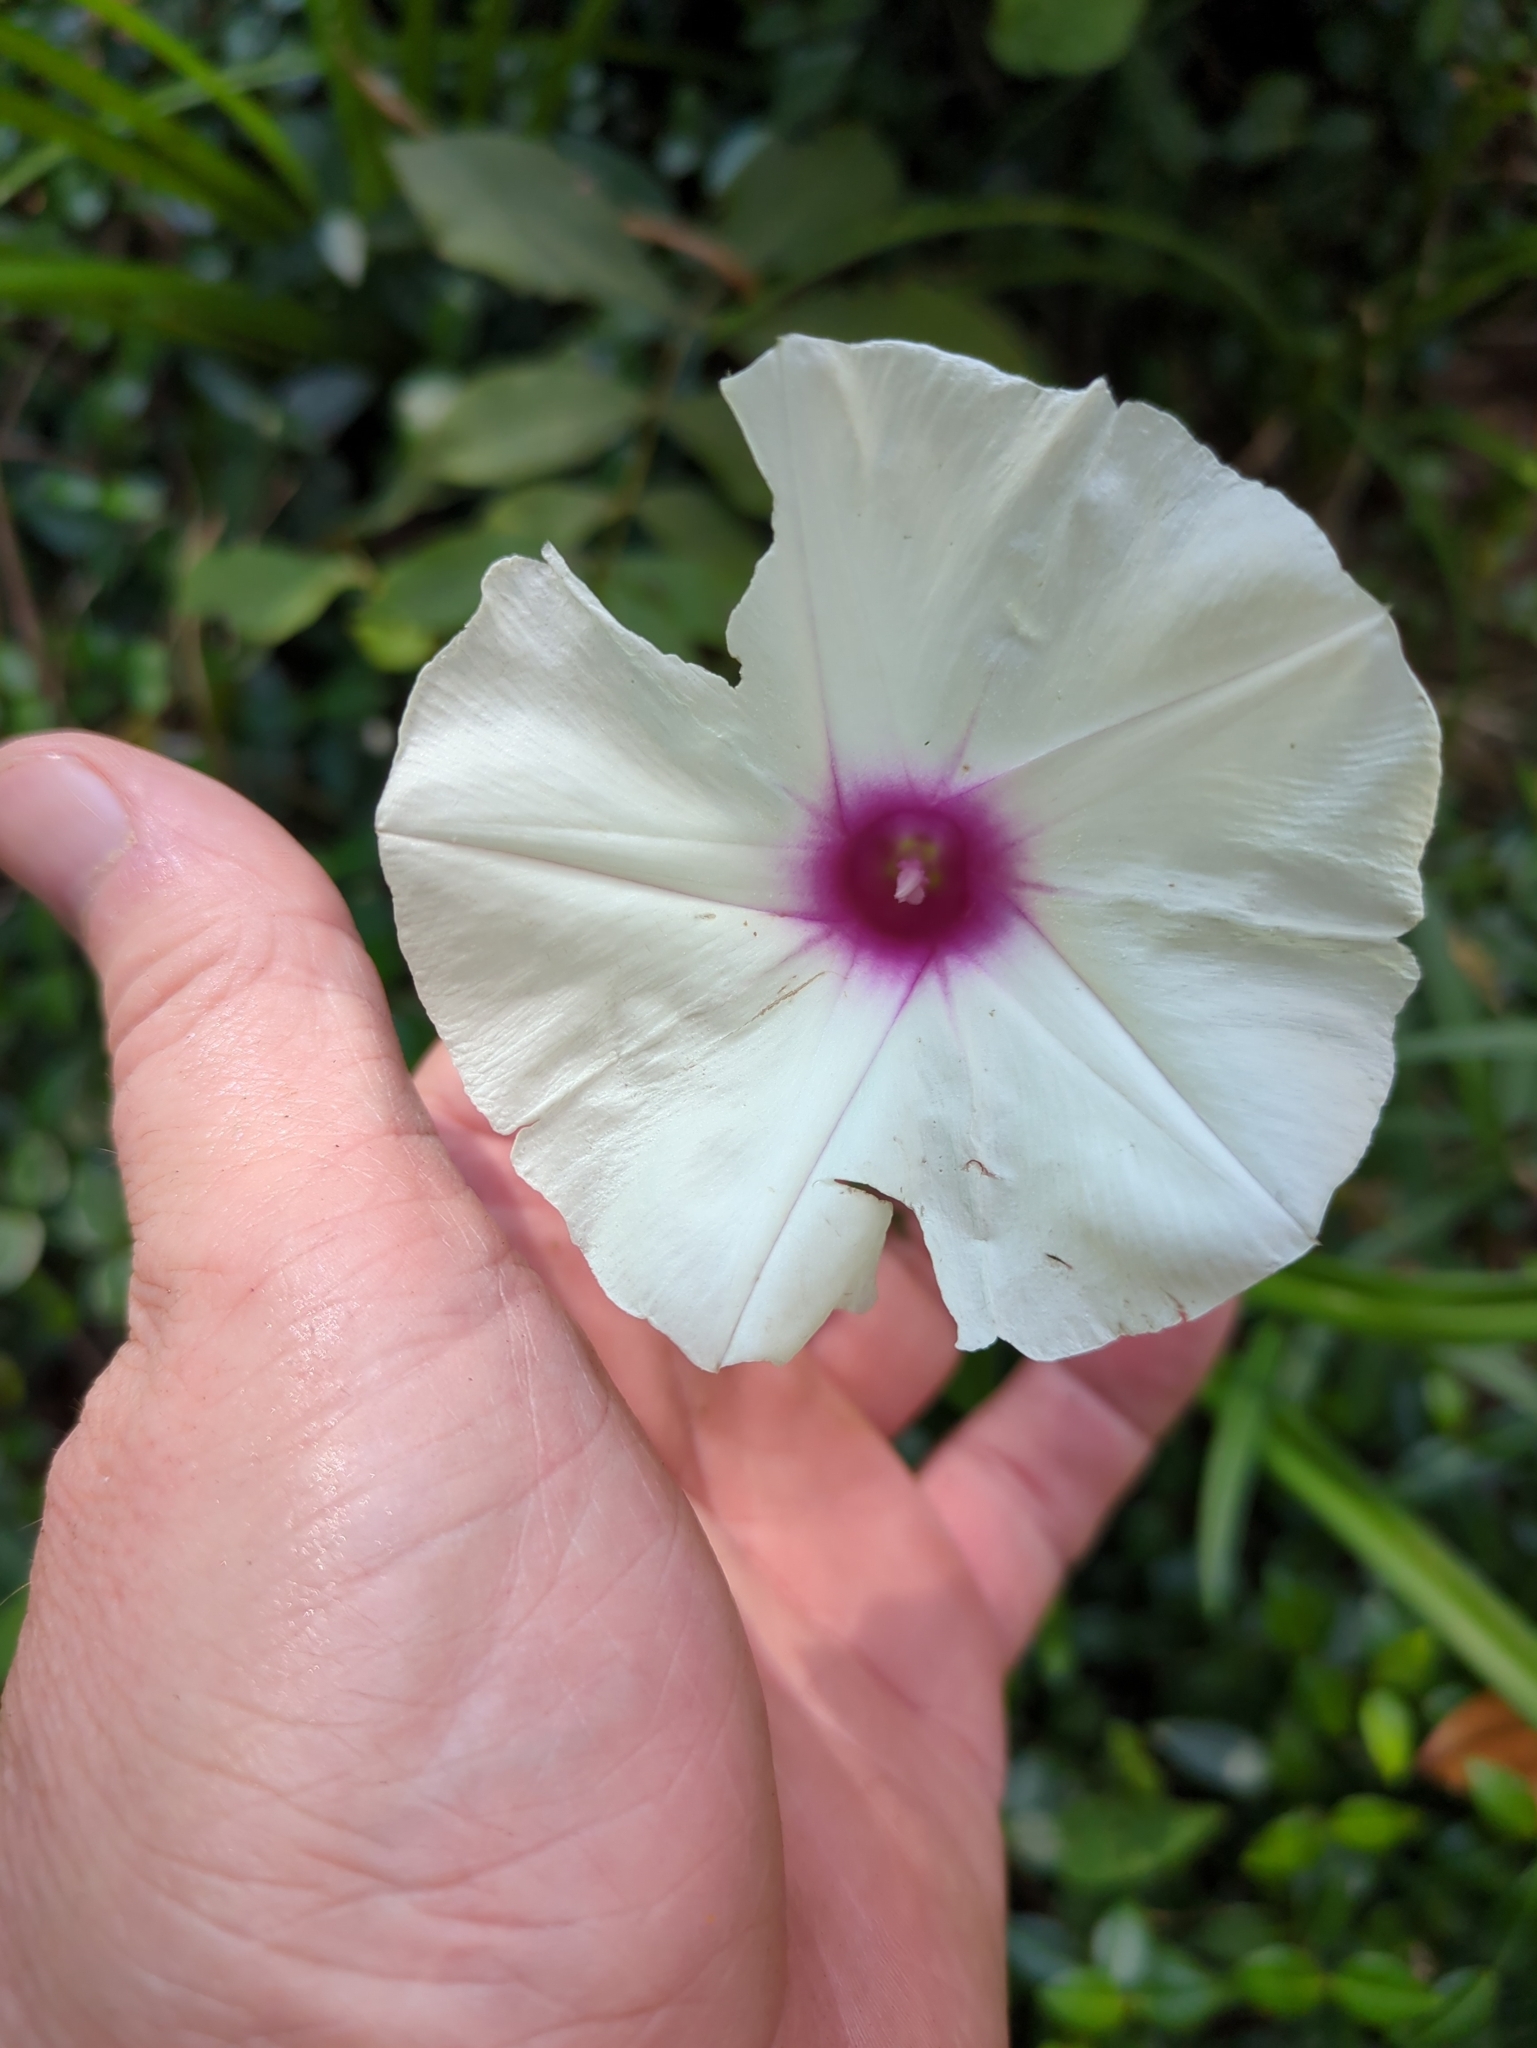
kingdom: Plantae
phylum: Tracheophyta
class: Magnoliopsida
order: Solanales
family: Convolvulaceae
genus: Ipomoea
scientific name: Ipomoea pandurata
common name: Man-of-the-earth
